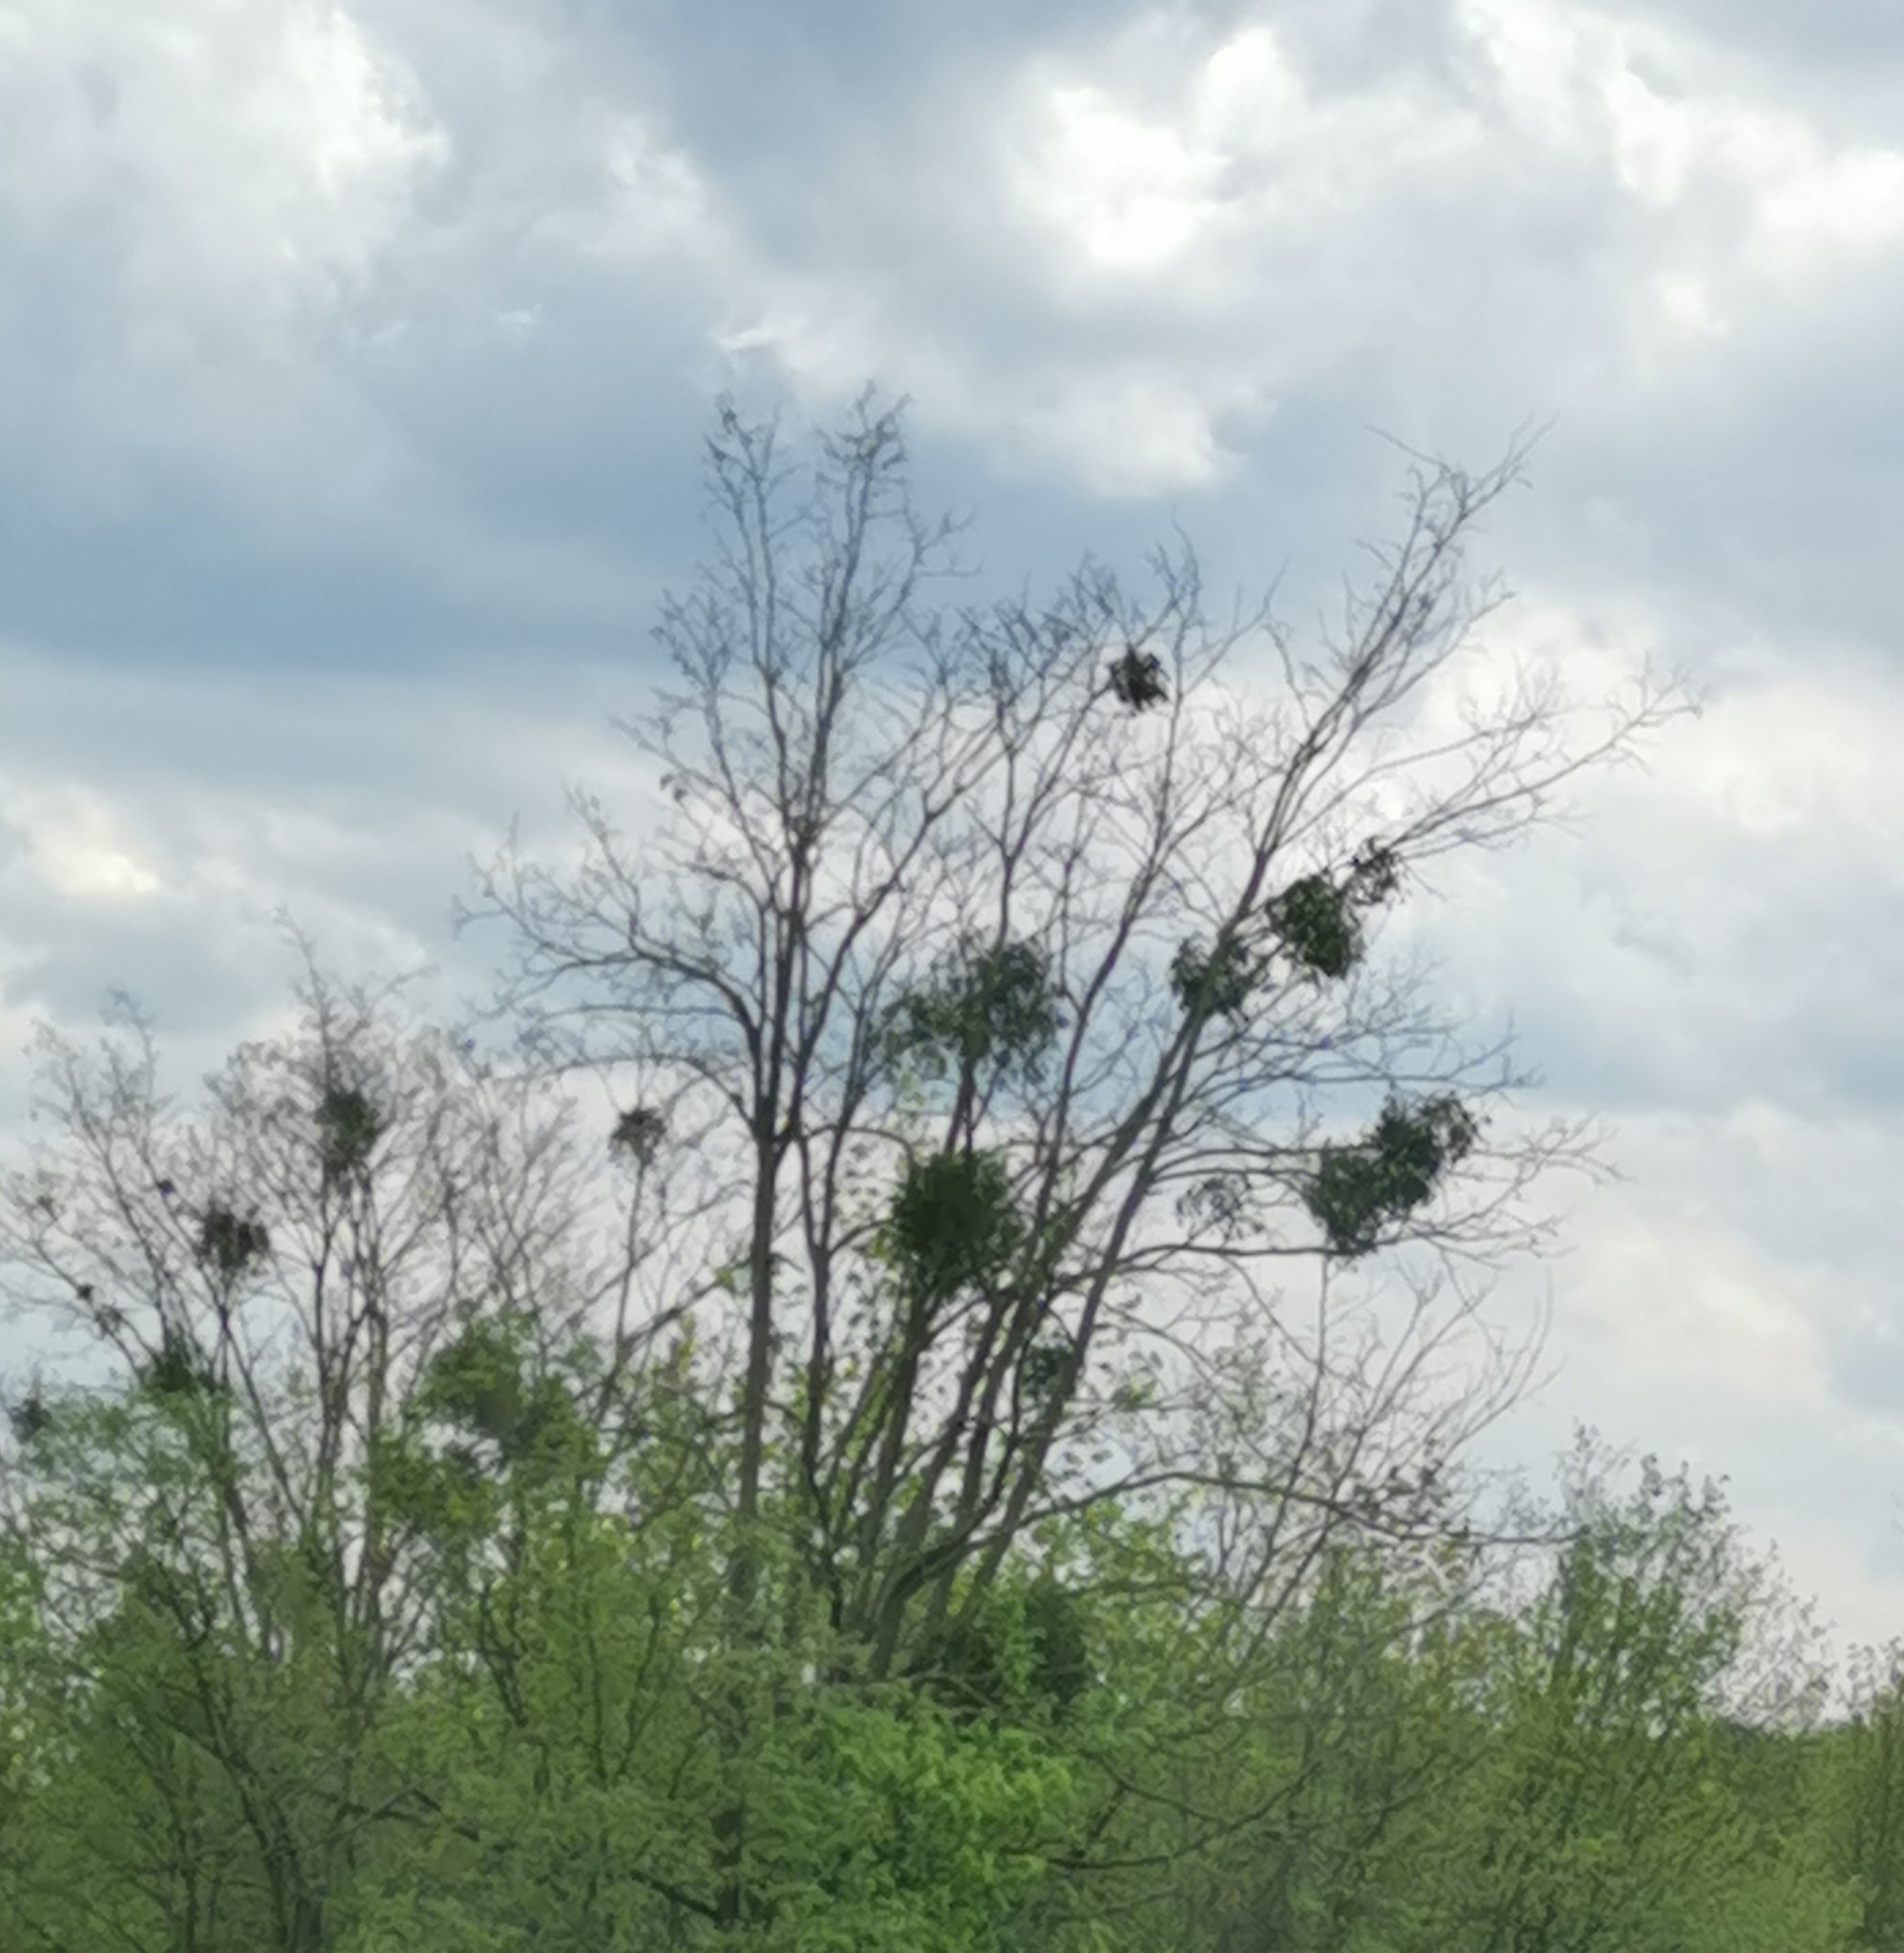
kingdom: Plantae
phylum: Tracheophyta
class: Magnoliopsida
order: Santalales
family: Viscaceae
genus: Viscum
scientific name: Viscum album
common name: Mistletoe
